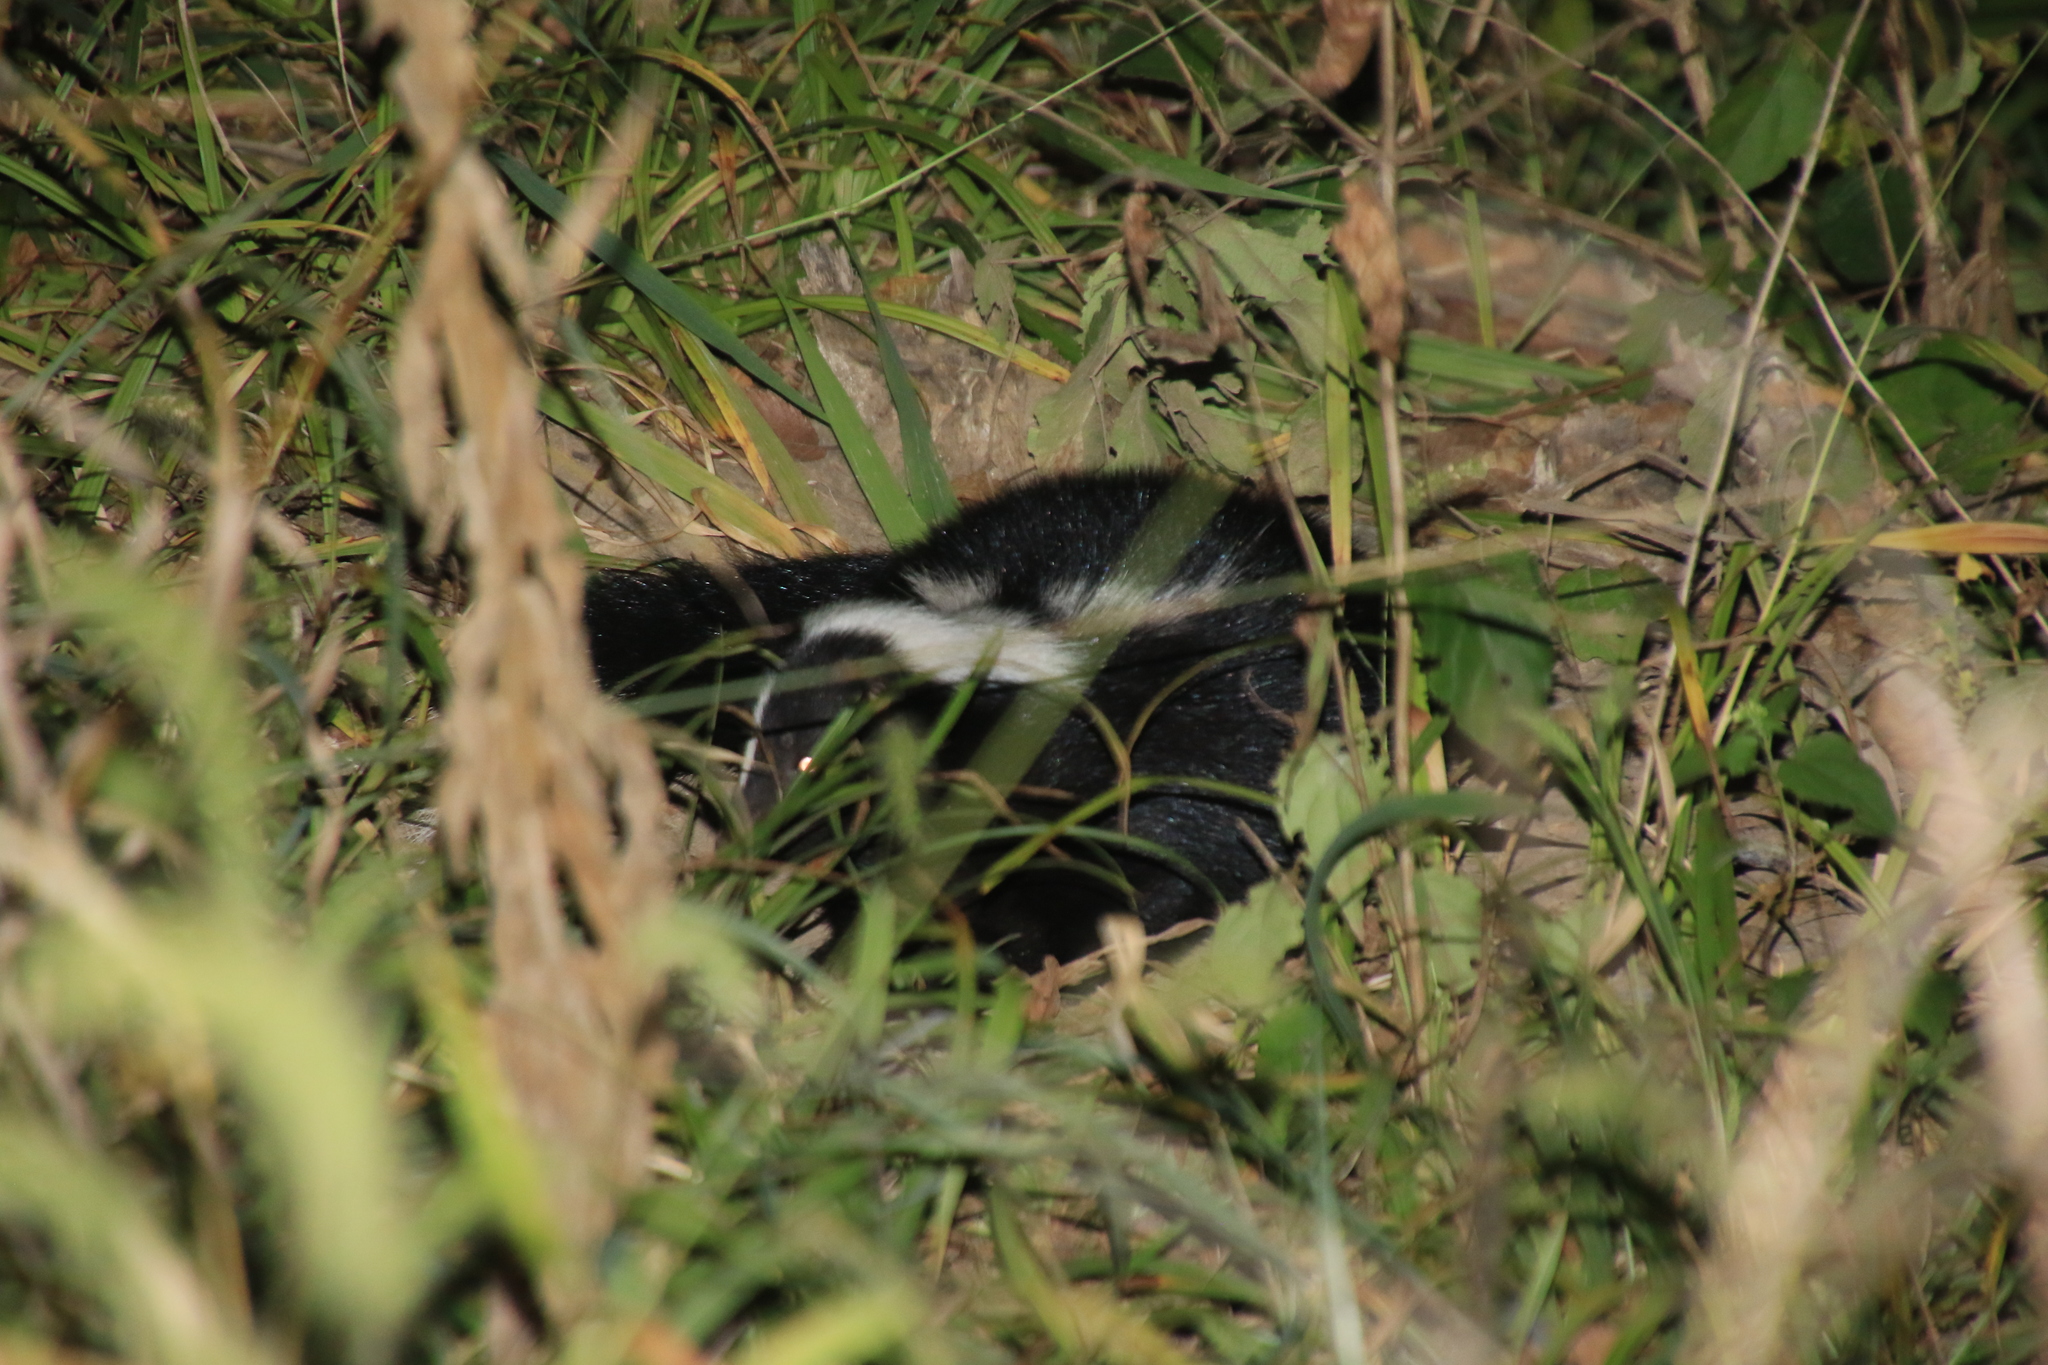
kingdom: Animalia
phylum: Chordata
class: Mammalia
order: Carnivora
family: Mephitidae
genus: Mephitis
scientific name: Mephitis mephitis
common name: Striped skunk
